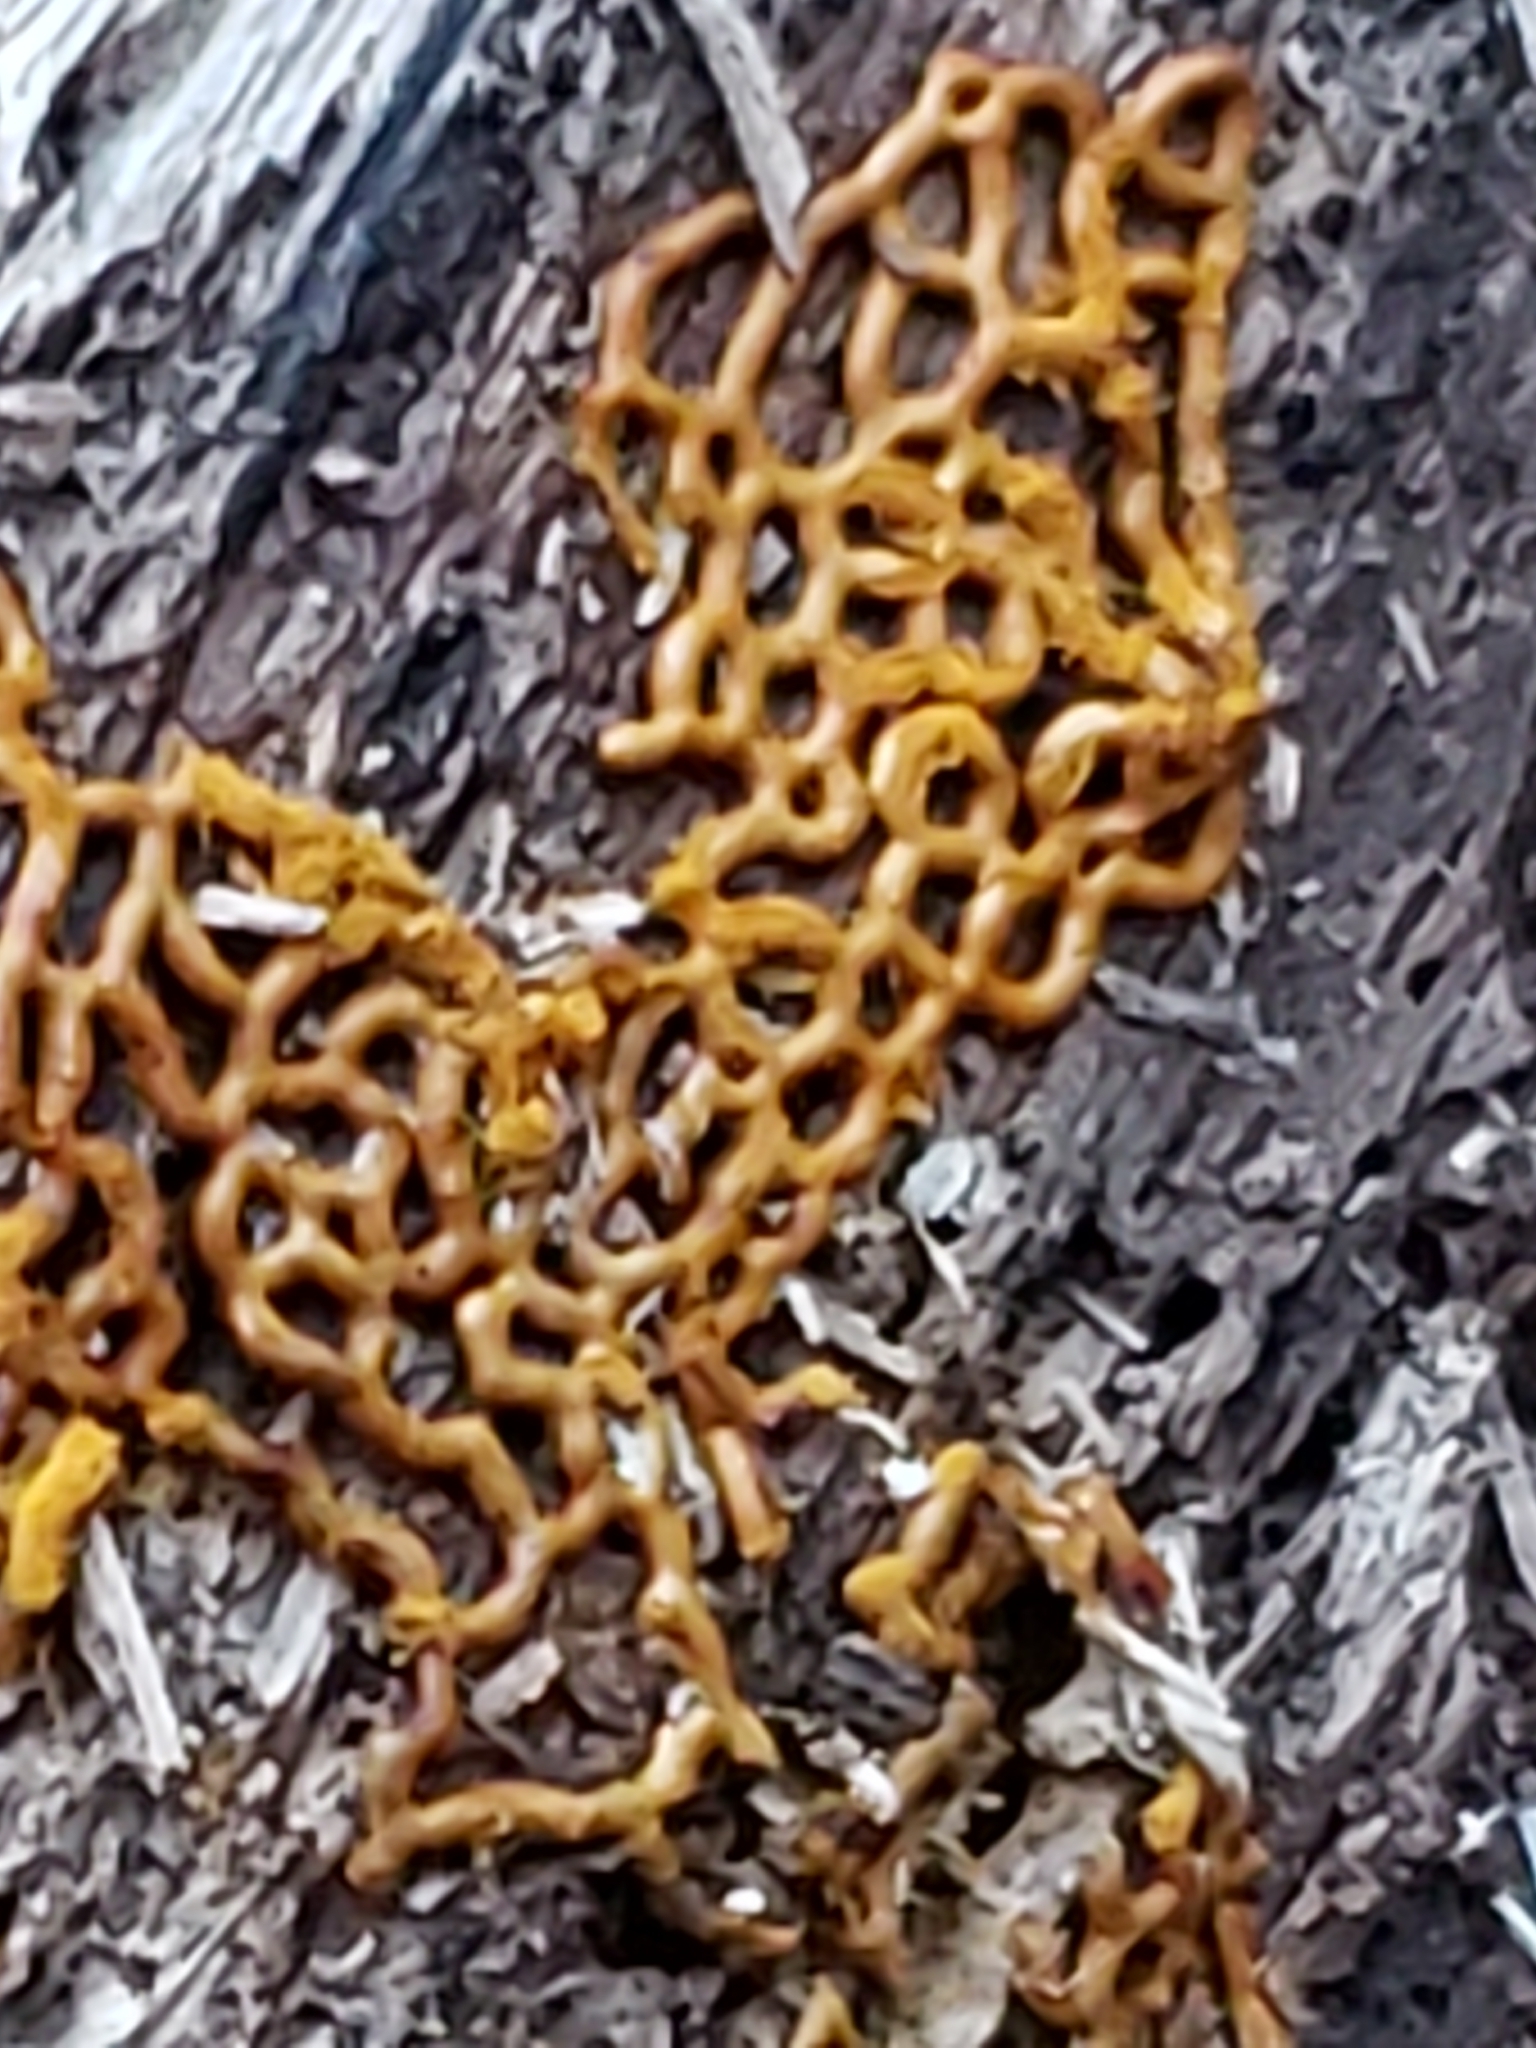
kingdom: Protozoa
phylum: Mycetozoa
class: Myxomycetes
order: Trichiales
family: Arcyriaceae
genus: Hemitrichia
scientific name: Hemitrichia serpula
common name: Pretzel slime mold
